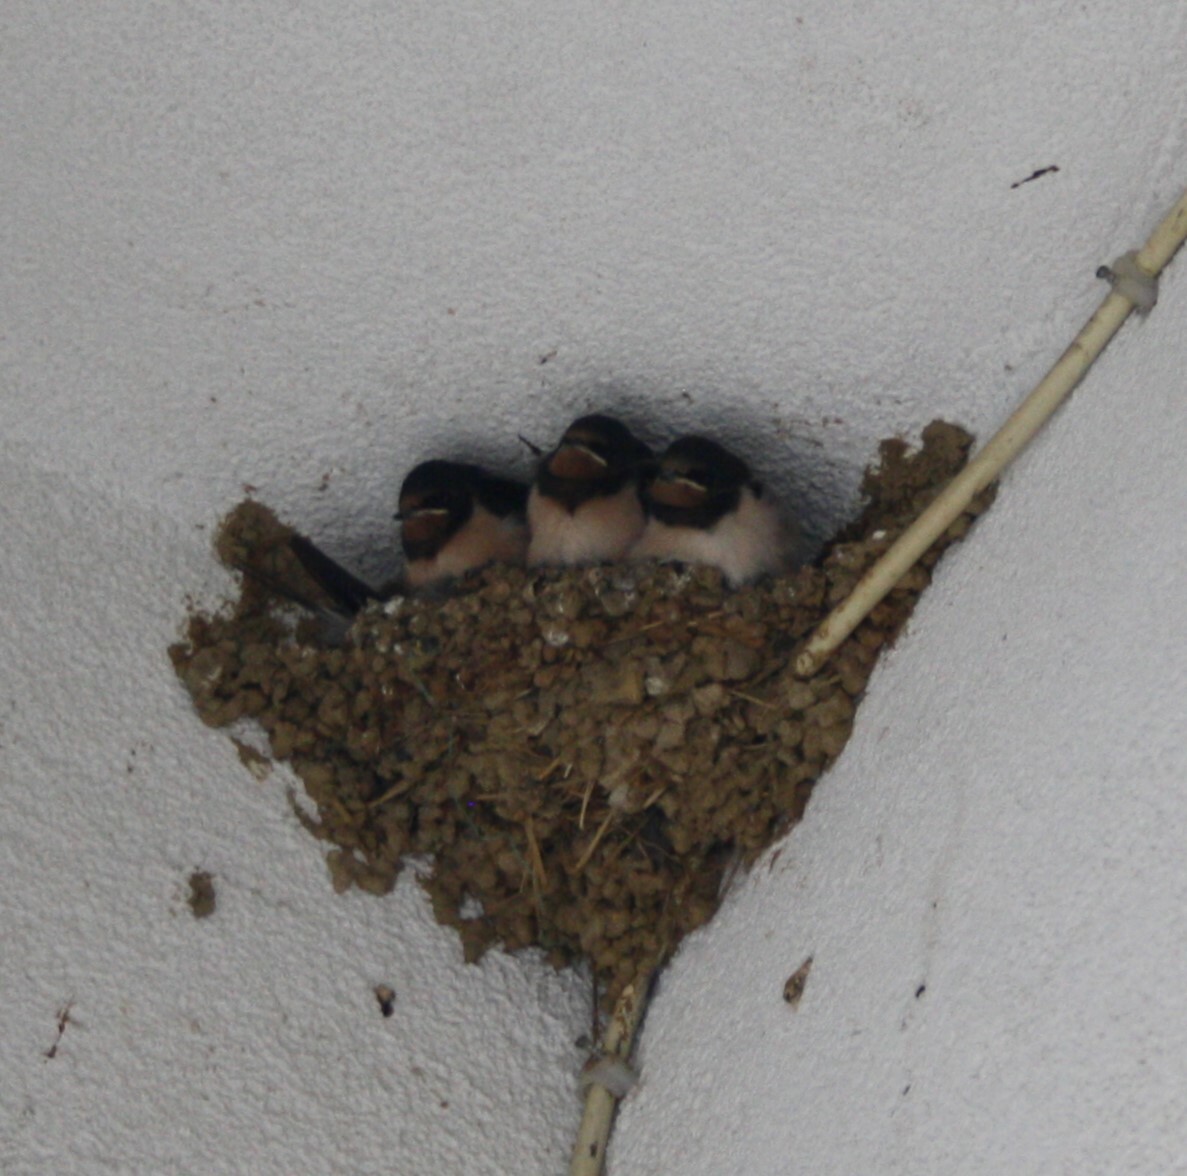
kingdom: Animalia
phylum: Chordata
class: Aves
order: Passeriformes
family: Hirundinidae
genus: Hirundo
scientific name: Hirundo rustica
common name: Barn swallow
